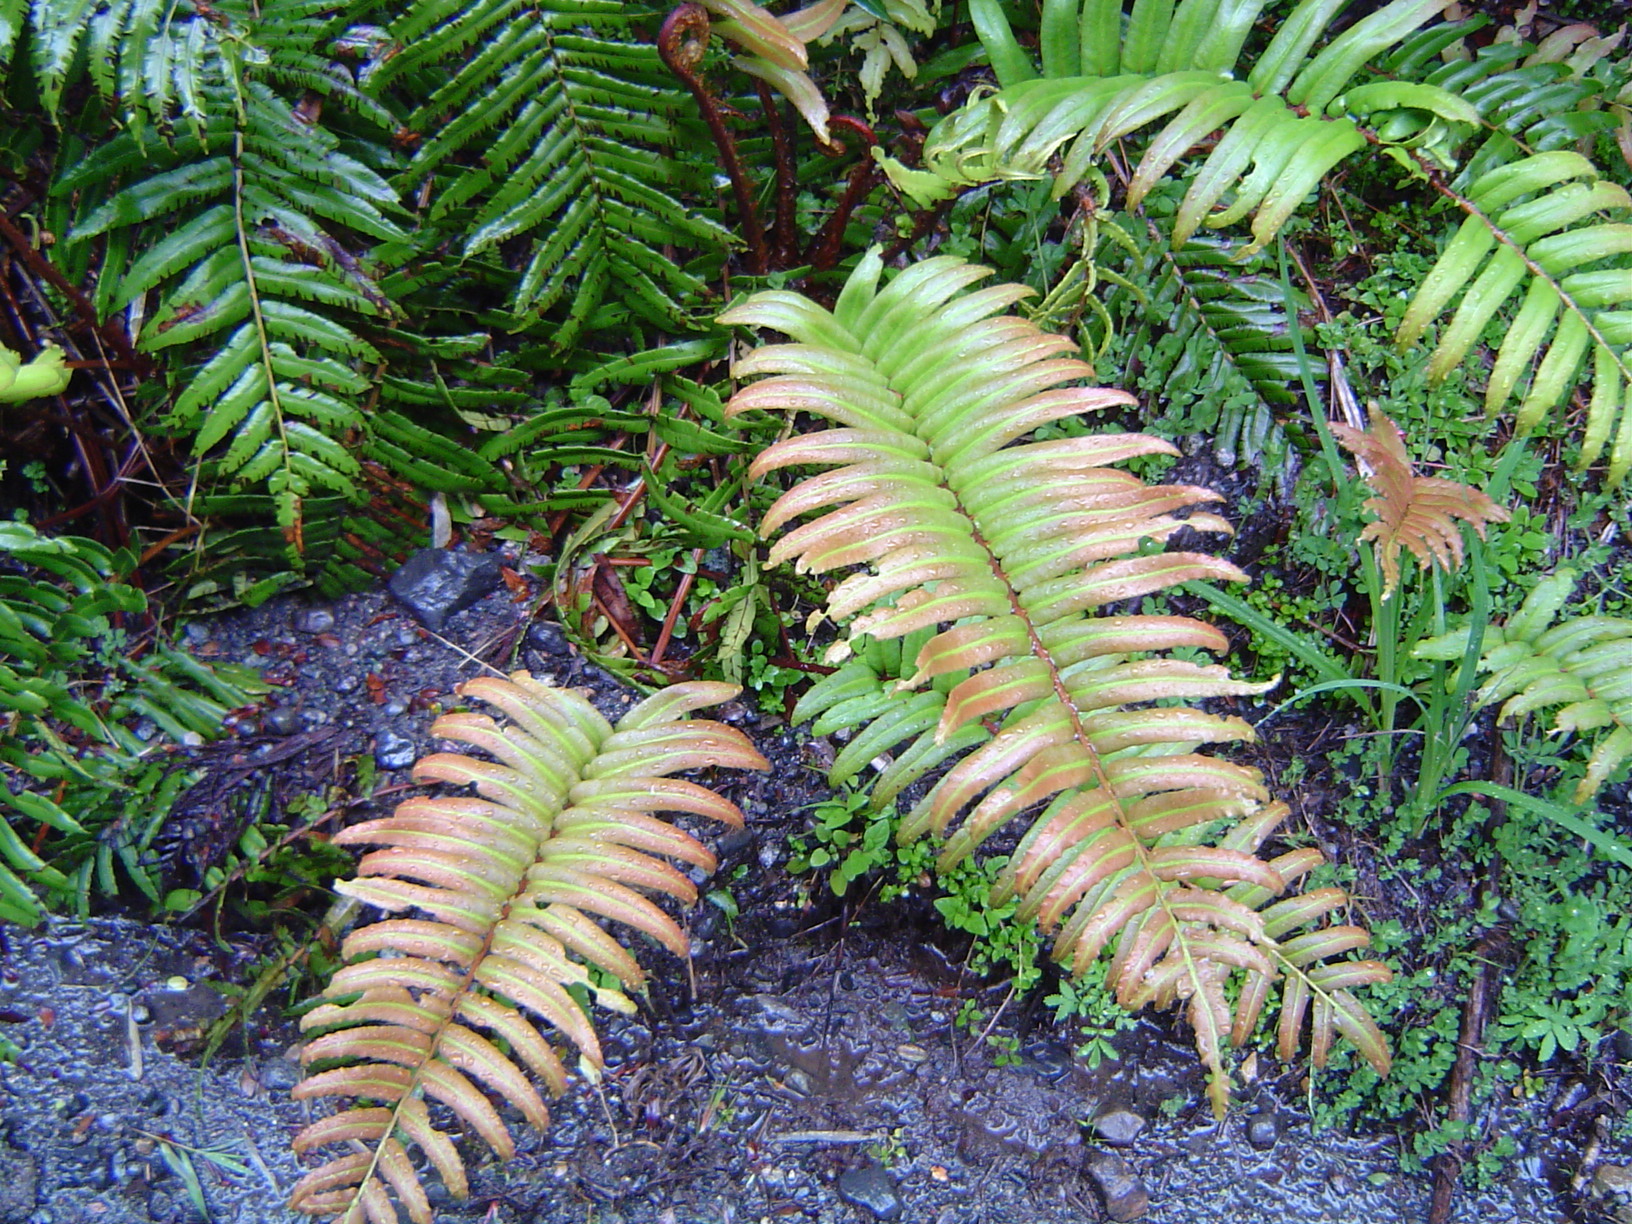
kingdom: Plantae
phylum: Tracheophyta
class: Polypodiopsida
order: Polypodiales
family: Blechnaceae
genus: Parablechnum
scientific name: Parablechnum cordatum
